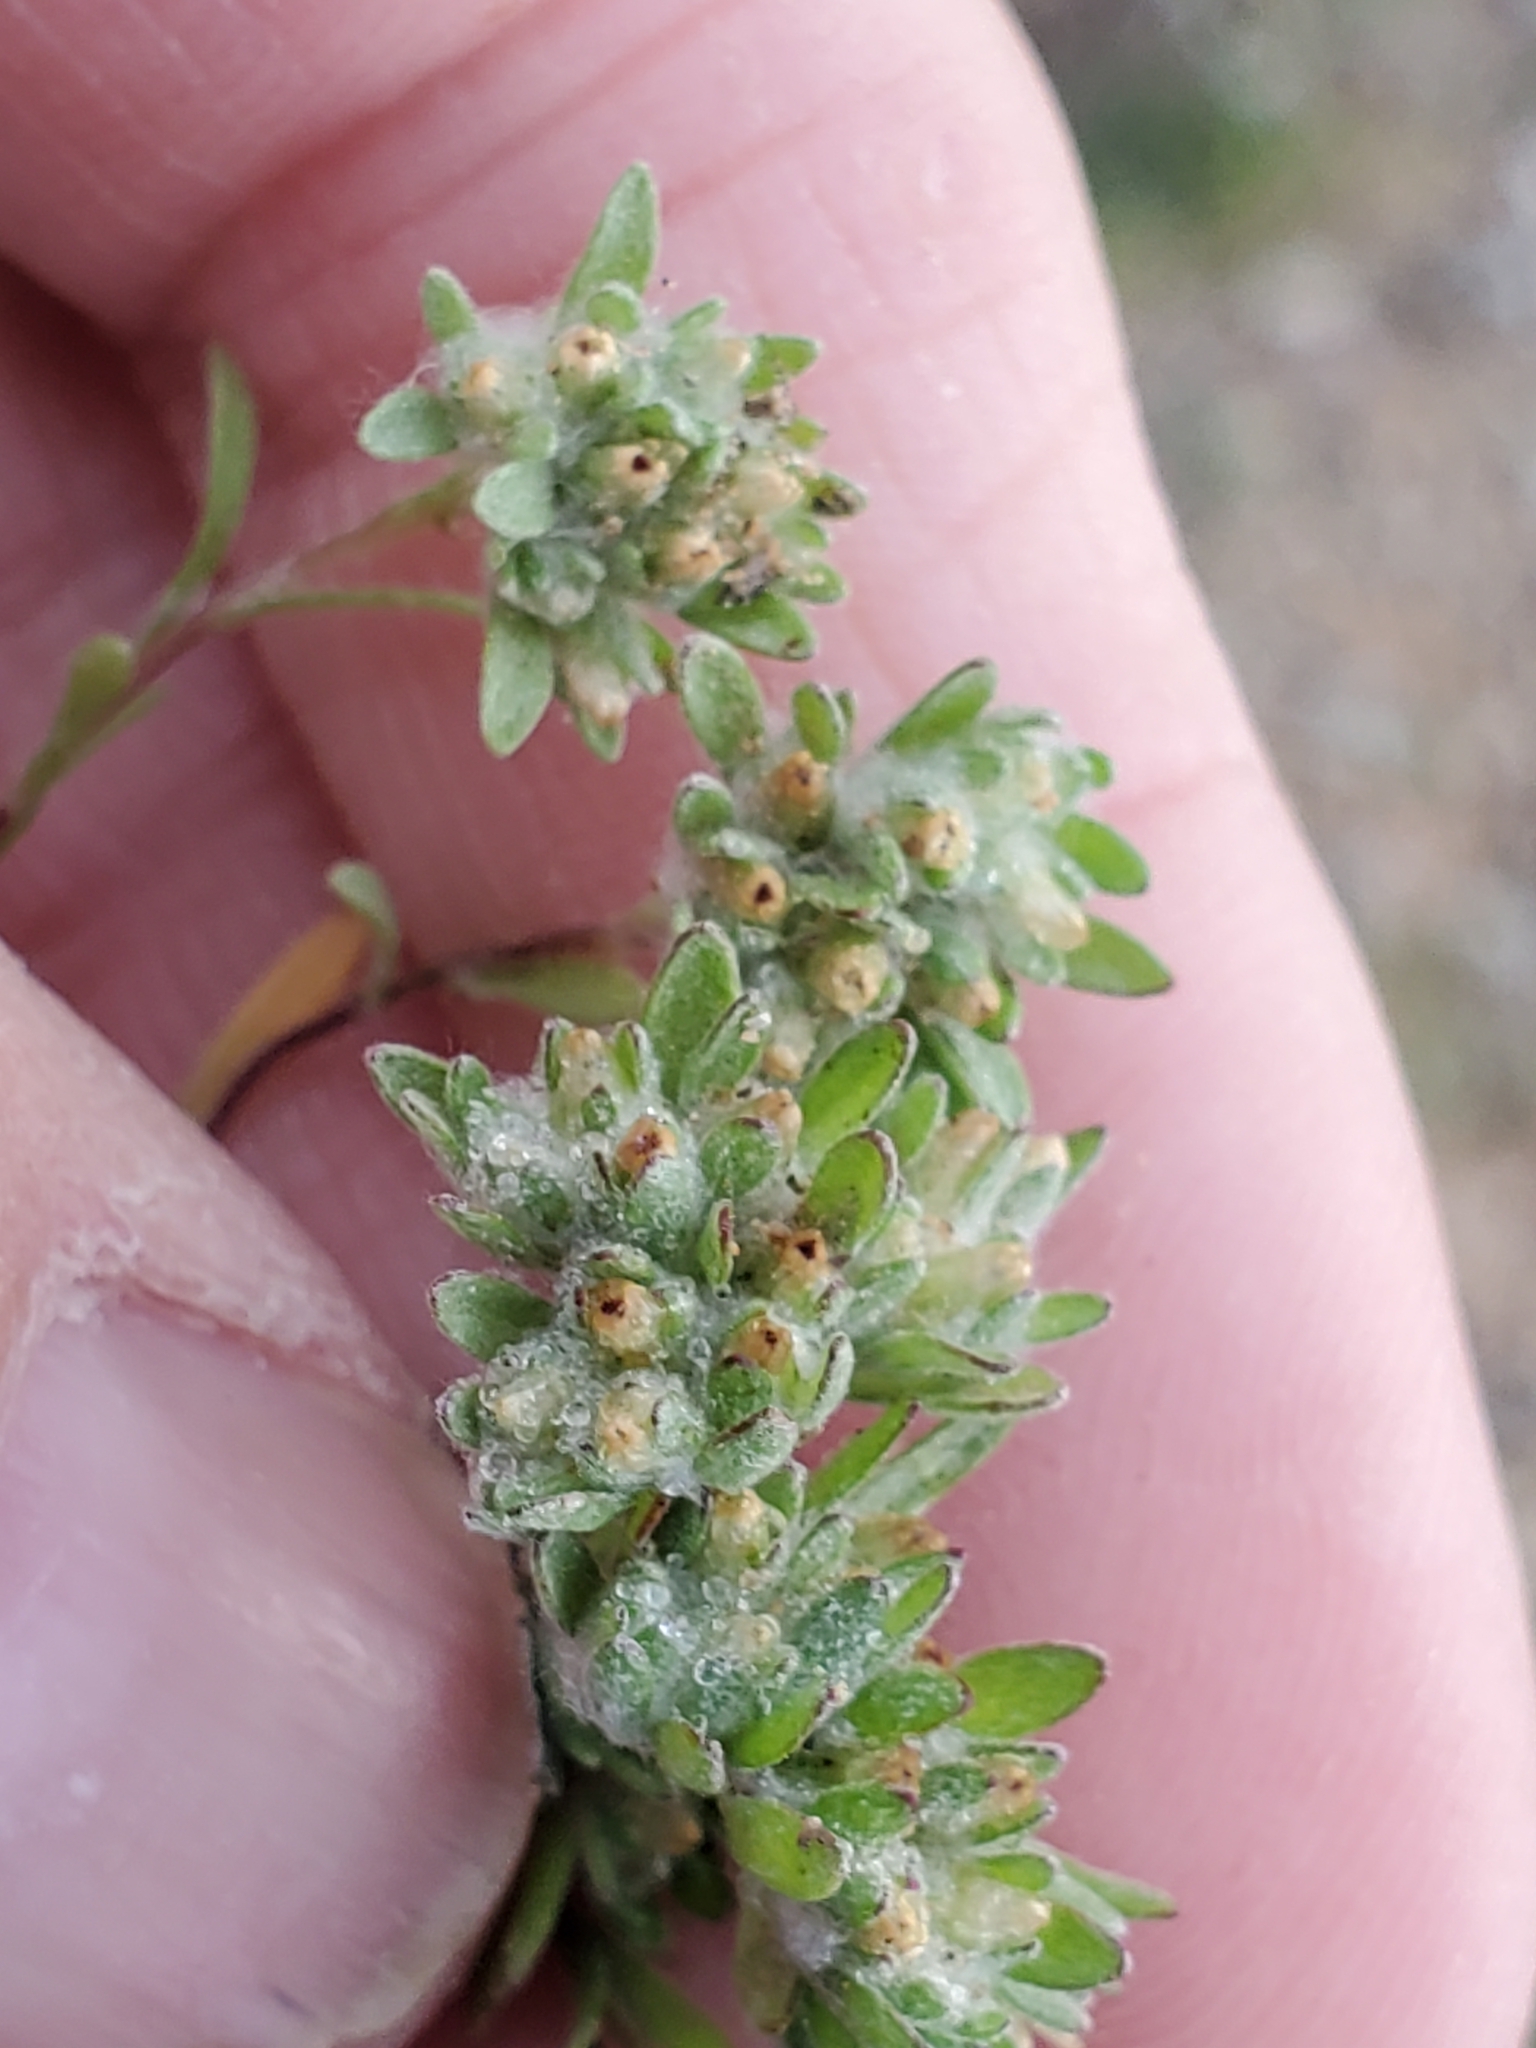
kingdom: Plantae
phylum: Tracheophyta
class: Magnoliopsida
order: Asterales
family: Asteraceae
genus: Lasiopogon
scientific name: Lasiopogon glomerulatus
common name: Green cat thorn
